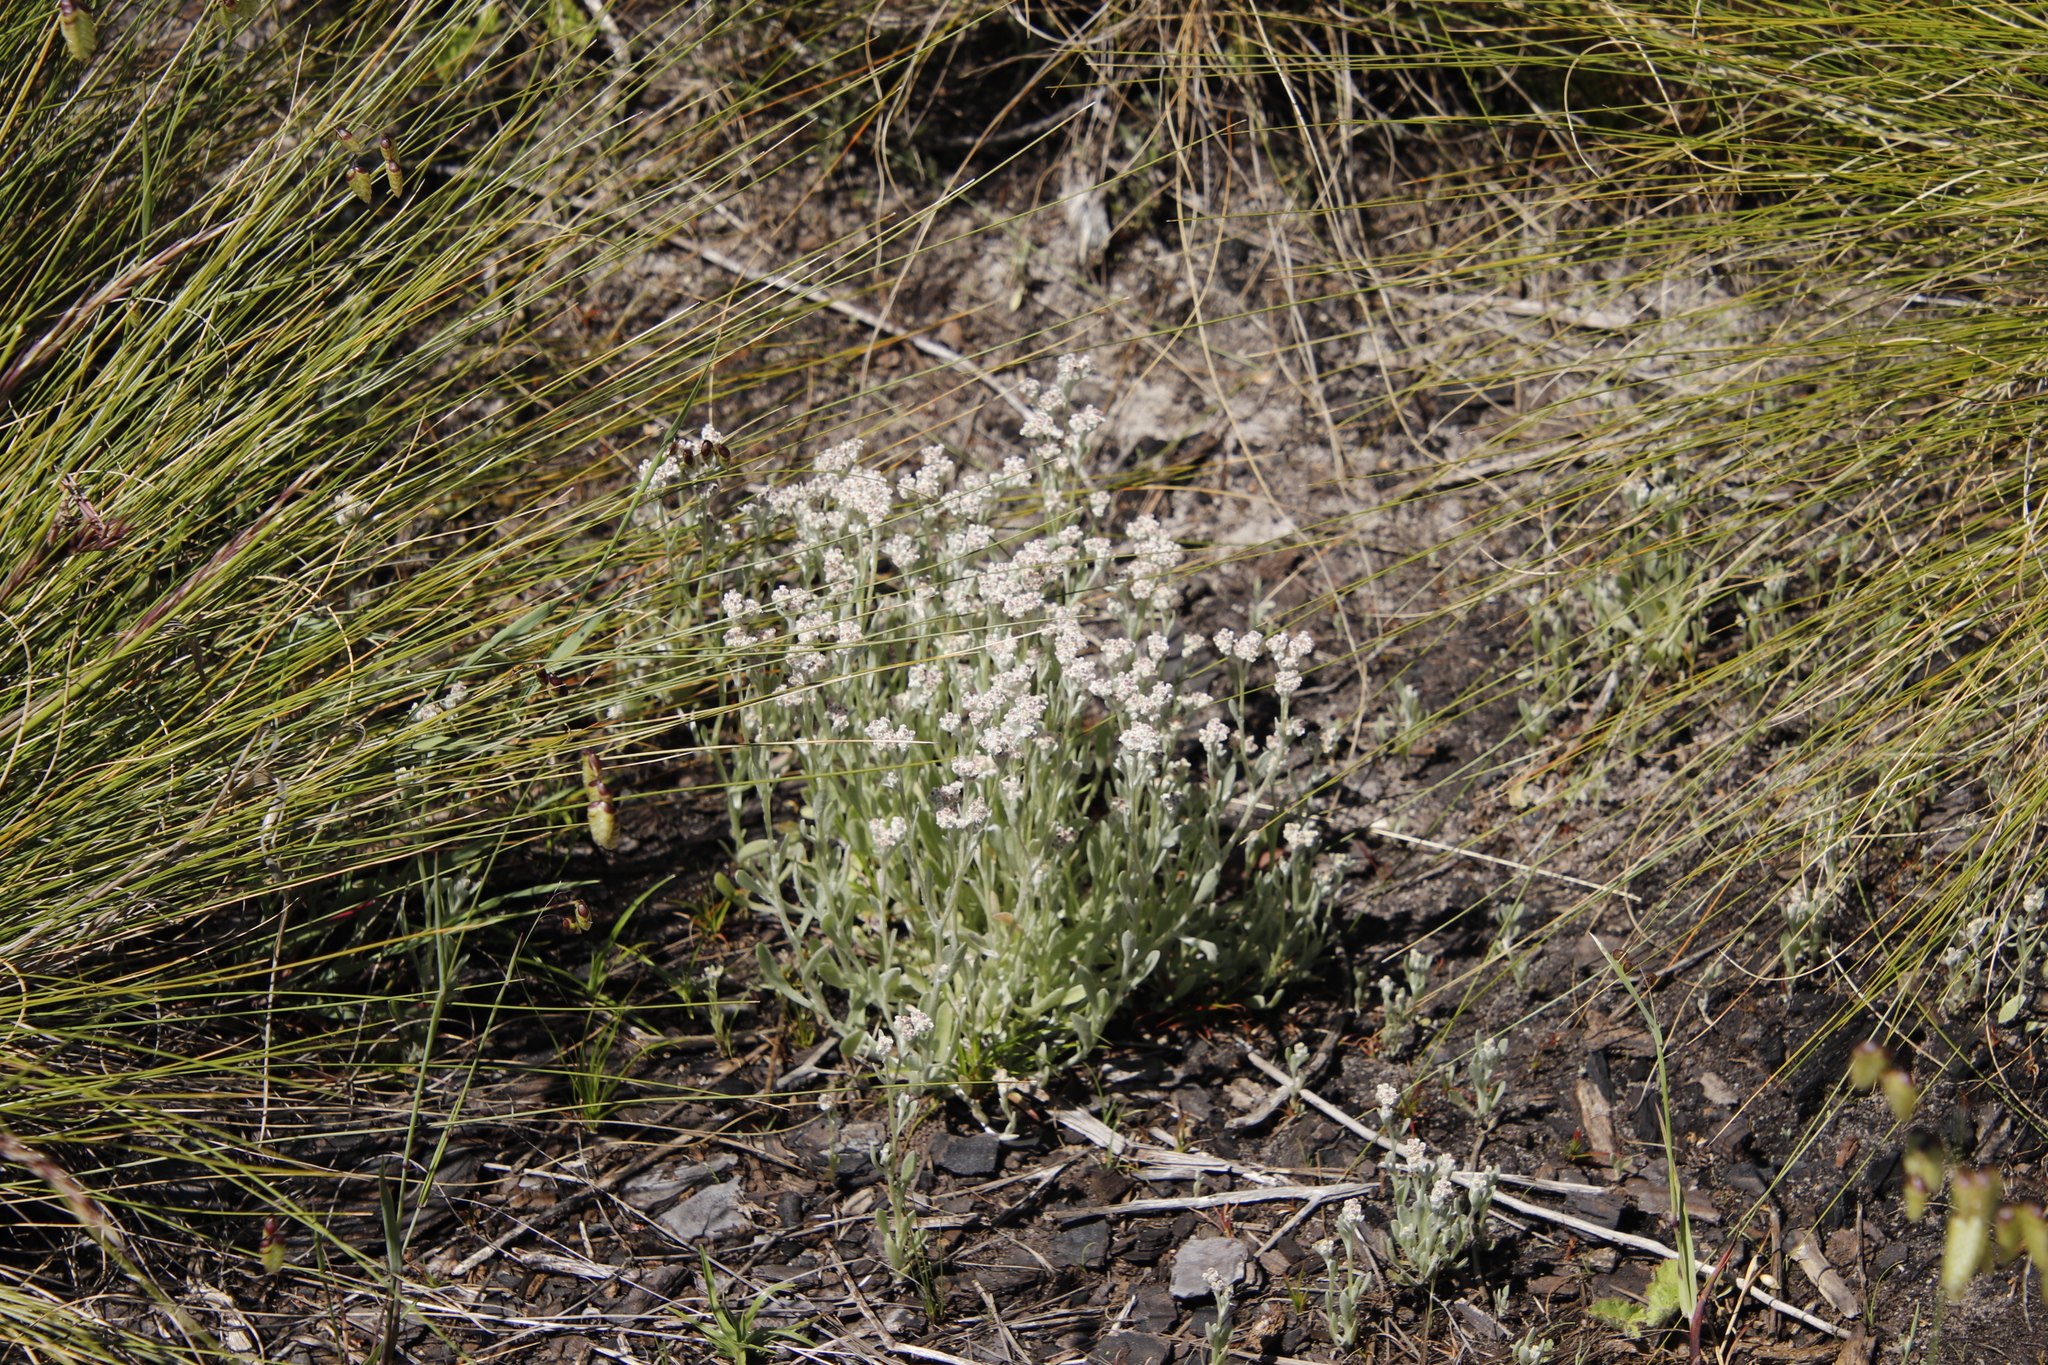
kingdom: Plantae
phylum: Tracheophyta
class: Magnoliopsida
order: Asterales
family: Asteraceae
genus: Vellereophyton
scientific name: Vellereophyton dealbatum
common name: White-cudweed
